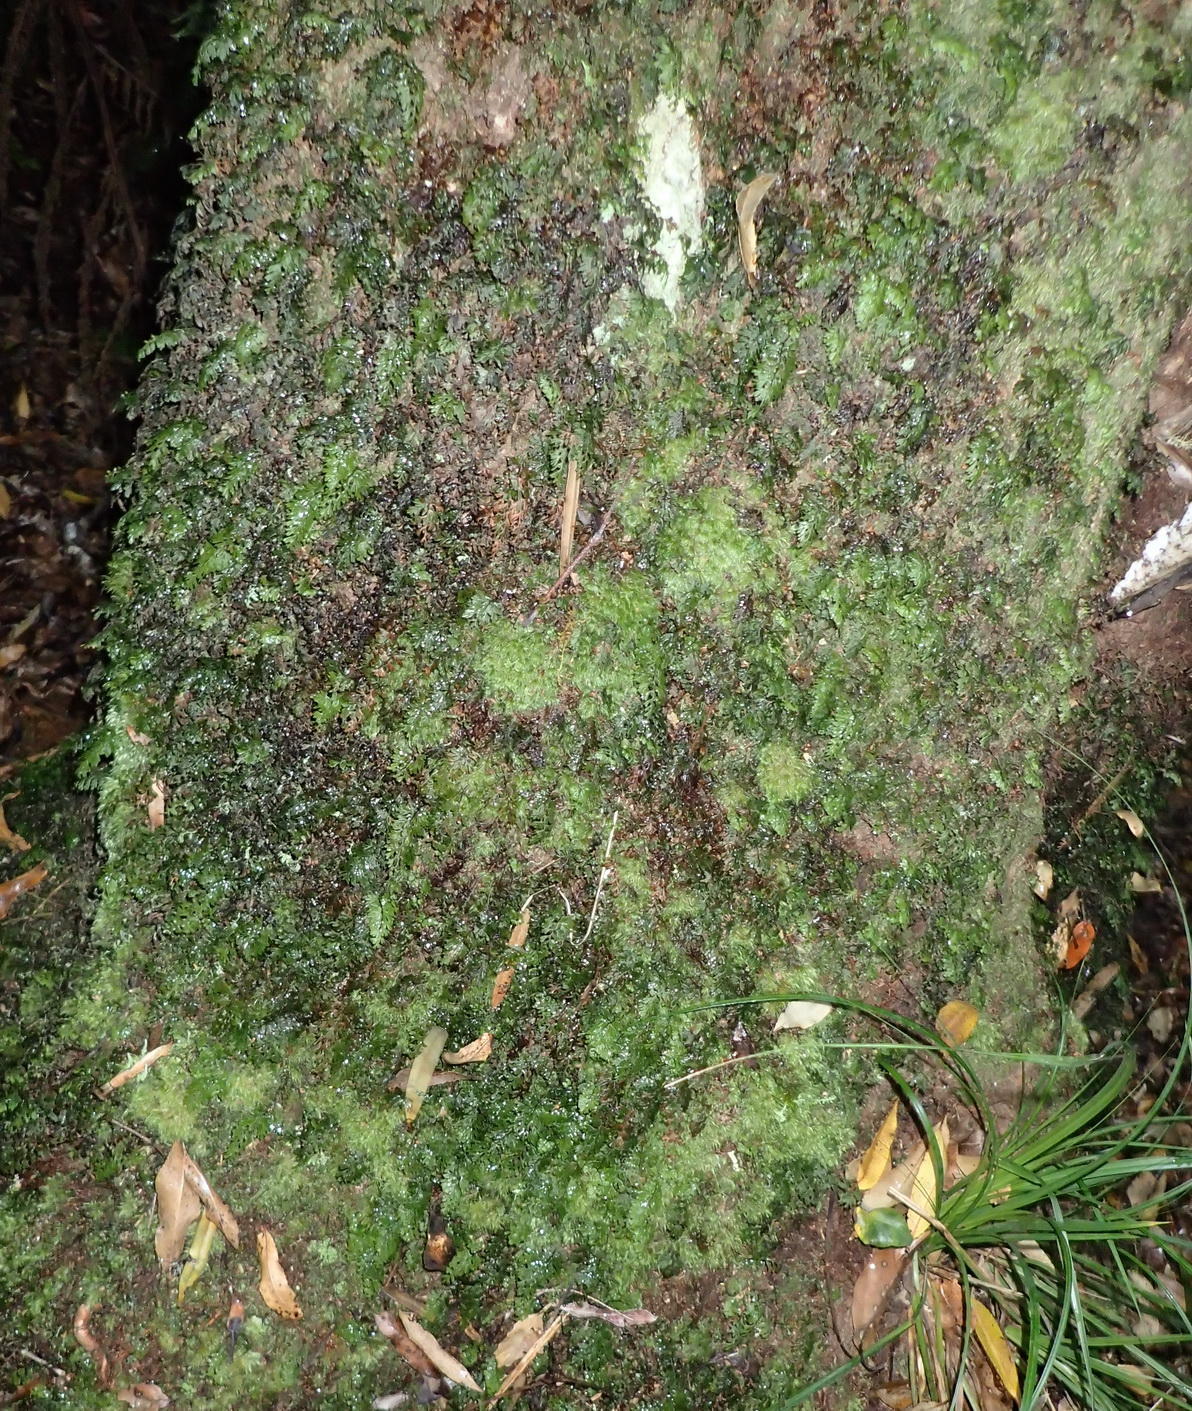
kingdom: Plantae
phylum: Tracheophyta
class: Polypodiopsida
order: Hymenophyllales
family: Hymenophyllaceae
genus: Hymenophyllum
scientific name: Hymenophyllum tunbrigense
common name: Tunbridge filmy fern
